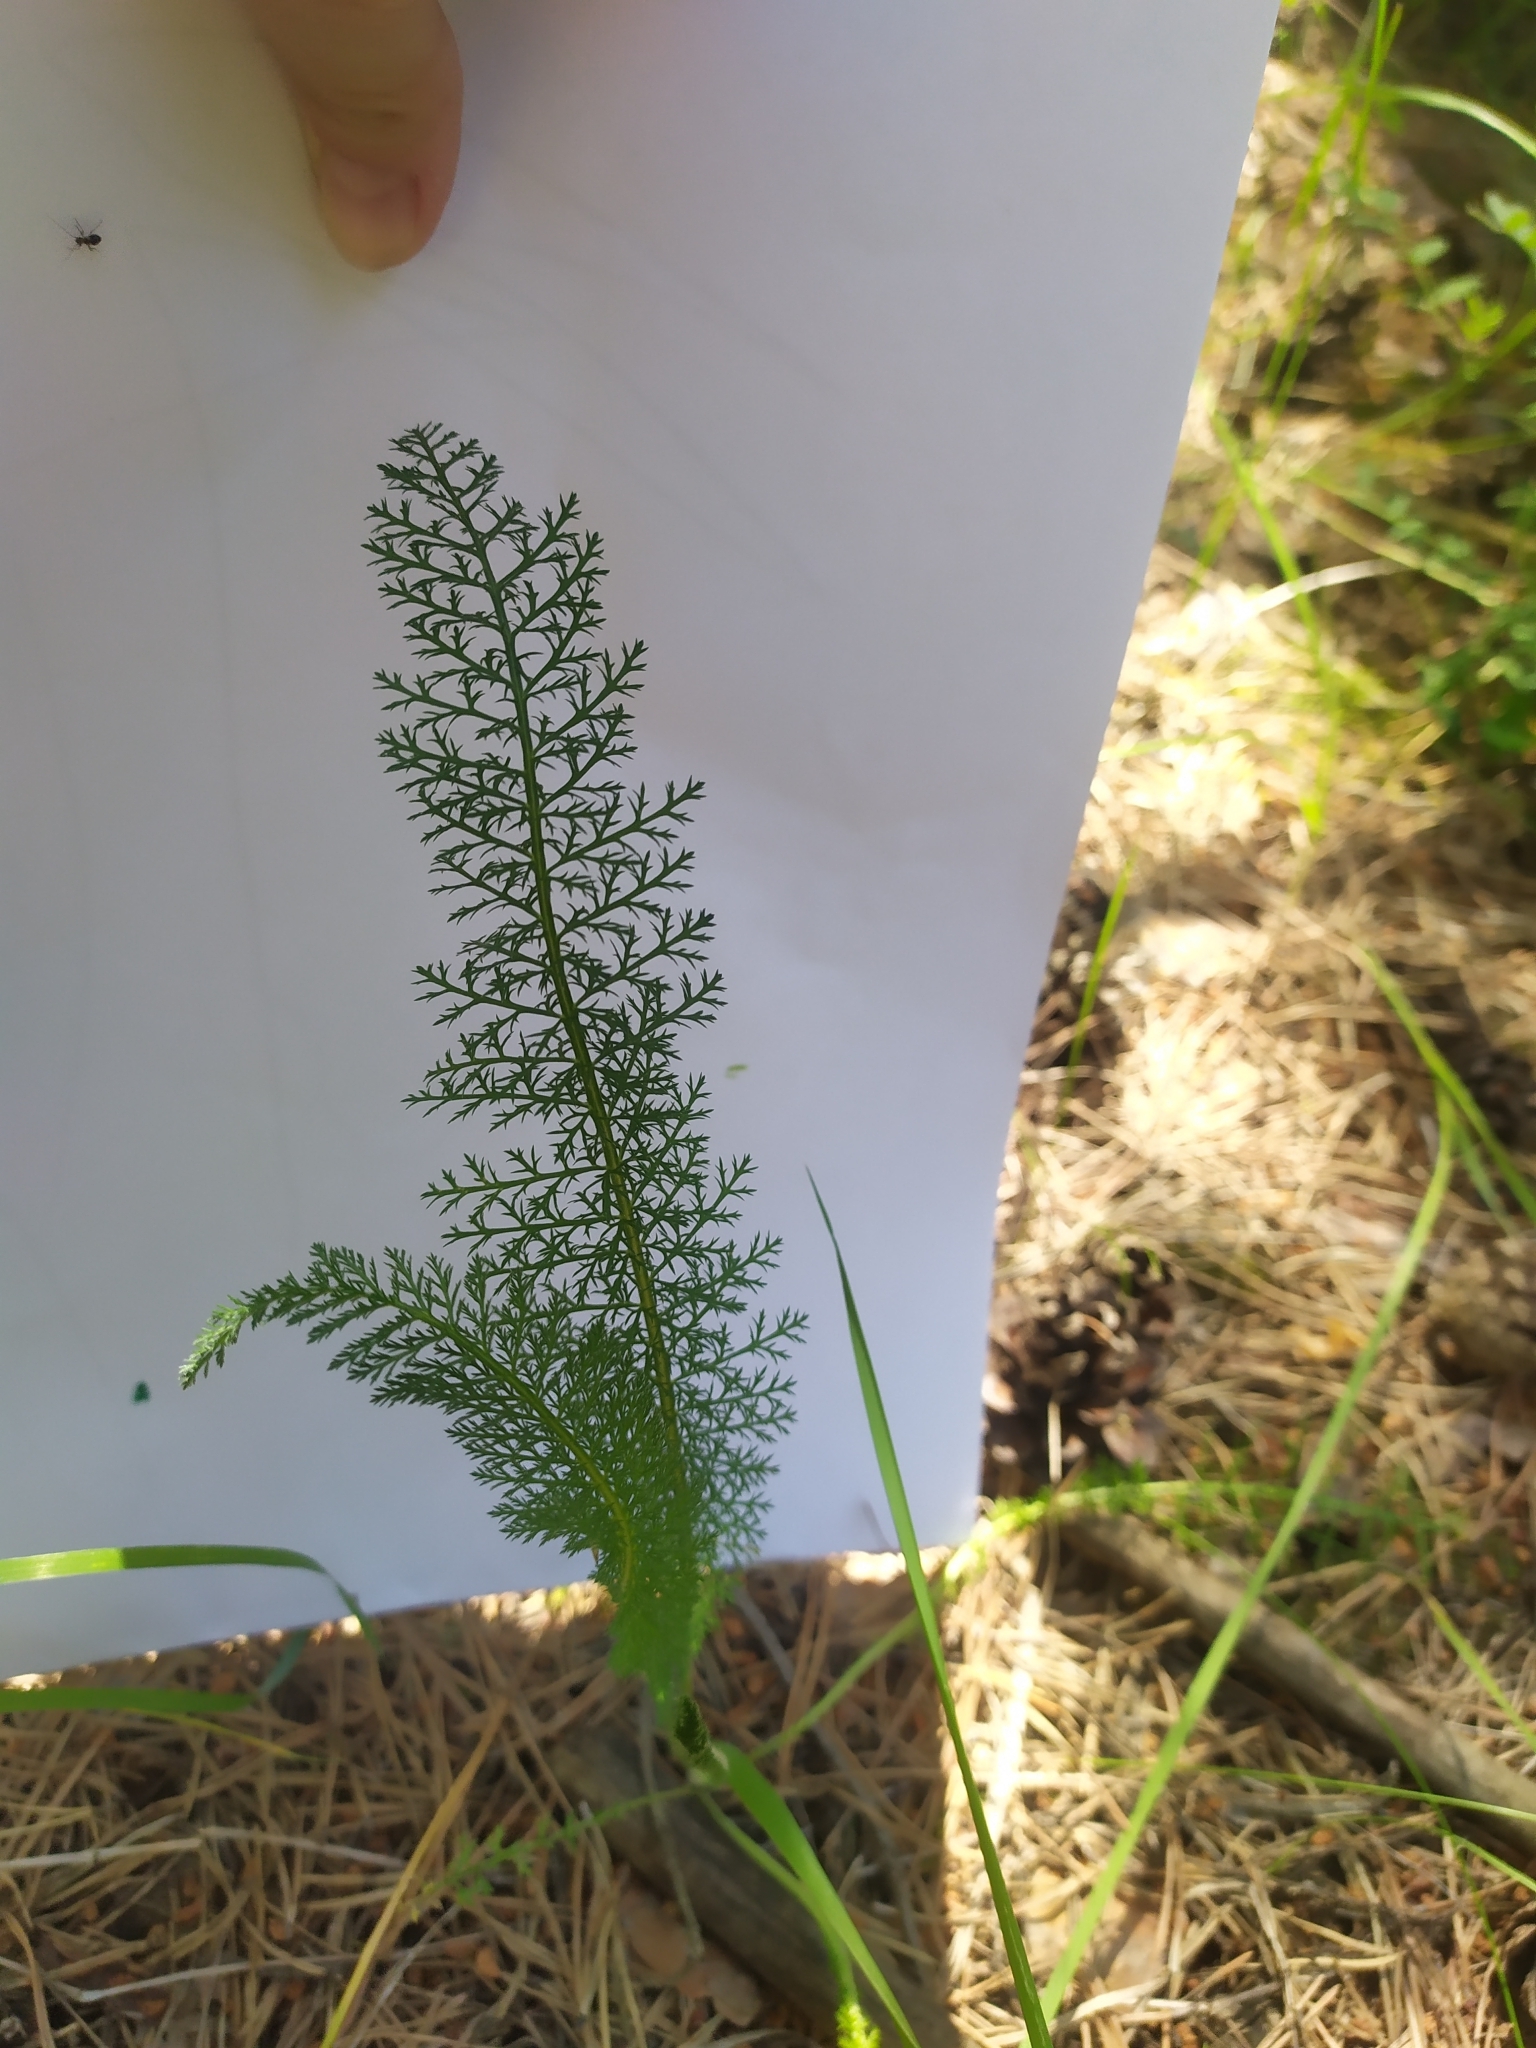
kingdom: Plantae
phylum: Tracheophyta
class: Magnoliopsida
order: Asterales
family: Asteraceae
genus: Achillea
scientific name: Achillea millefolium
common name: Yarrow
